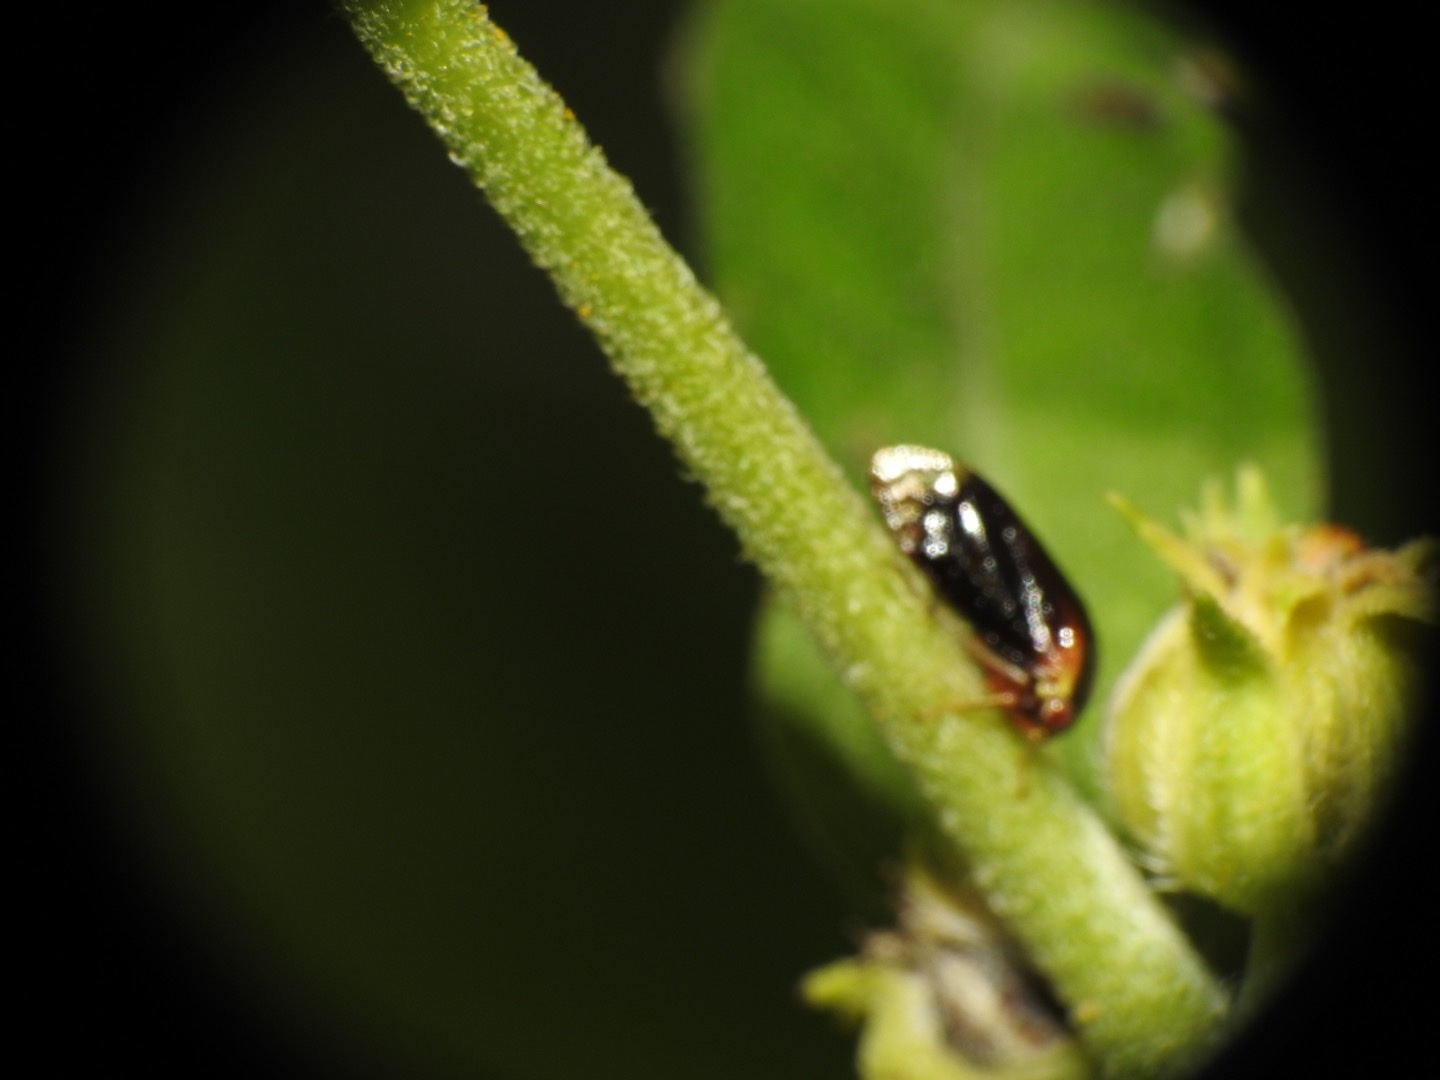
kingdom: Animalia
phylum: Arthropoda
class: Insecta
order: Hemiptera
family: Membracidae
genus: Acutalis
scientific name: Acutalis tartarea
